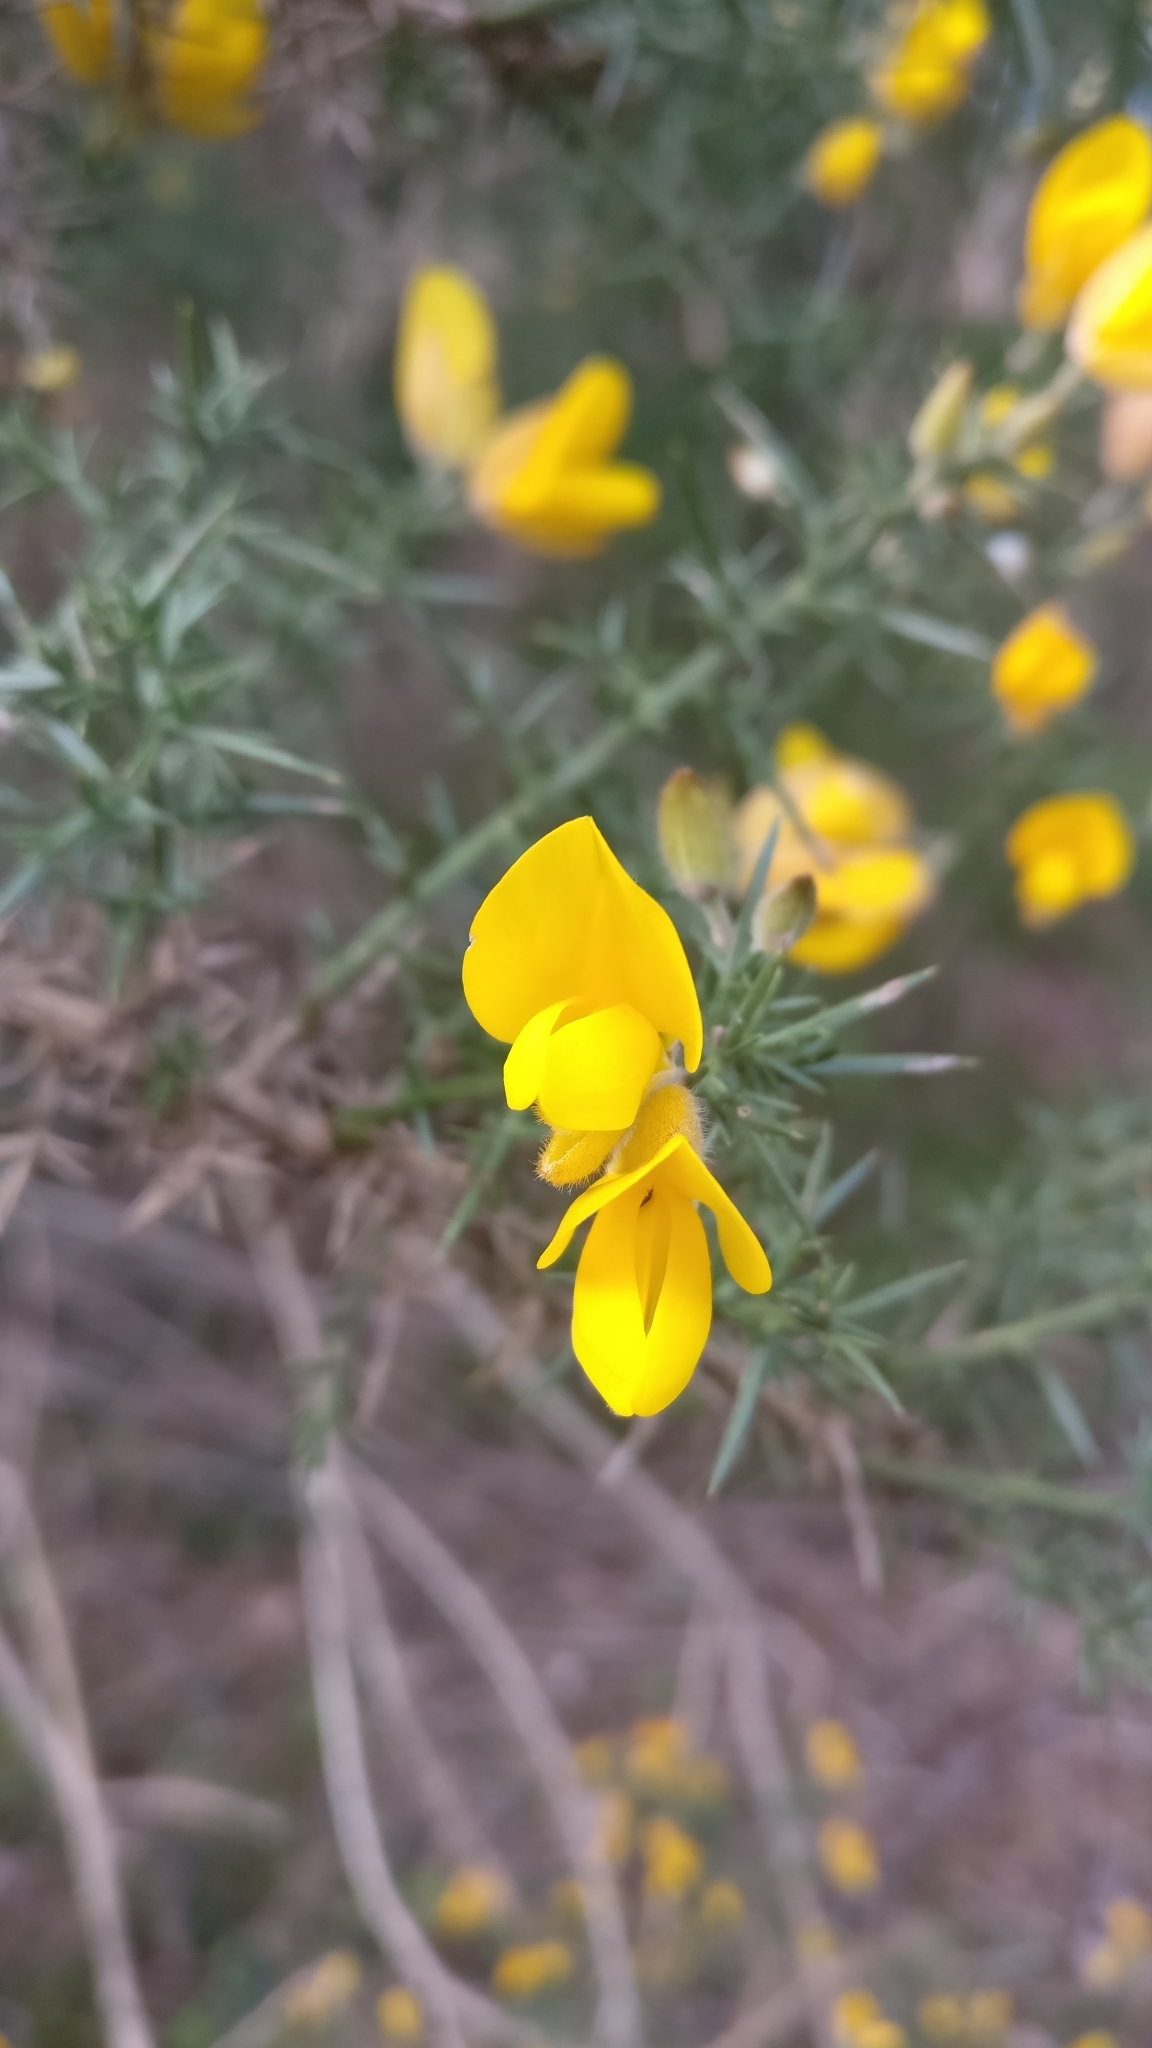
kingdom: Plantae
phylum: Tracheophyta
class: Magnoliopsida
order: Fabales
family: Fabaceae
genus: Ulex
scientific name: Ulex europaeus
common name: Common gorse
